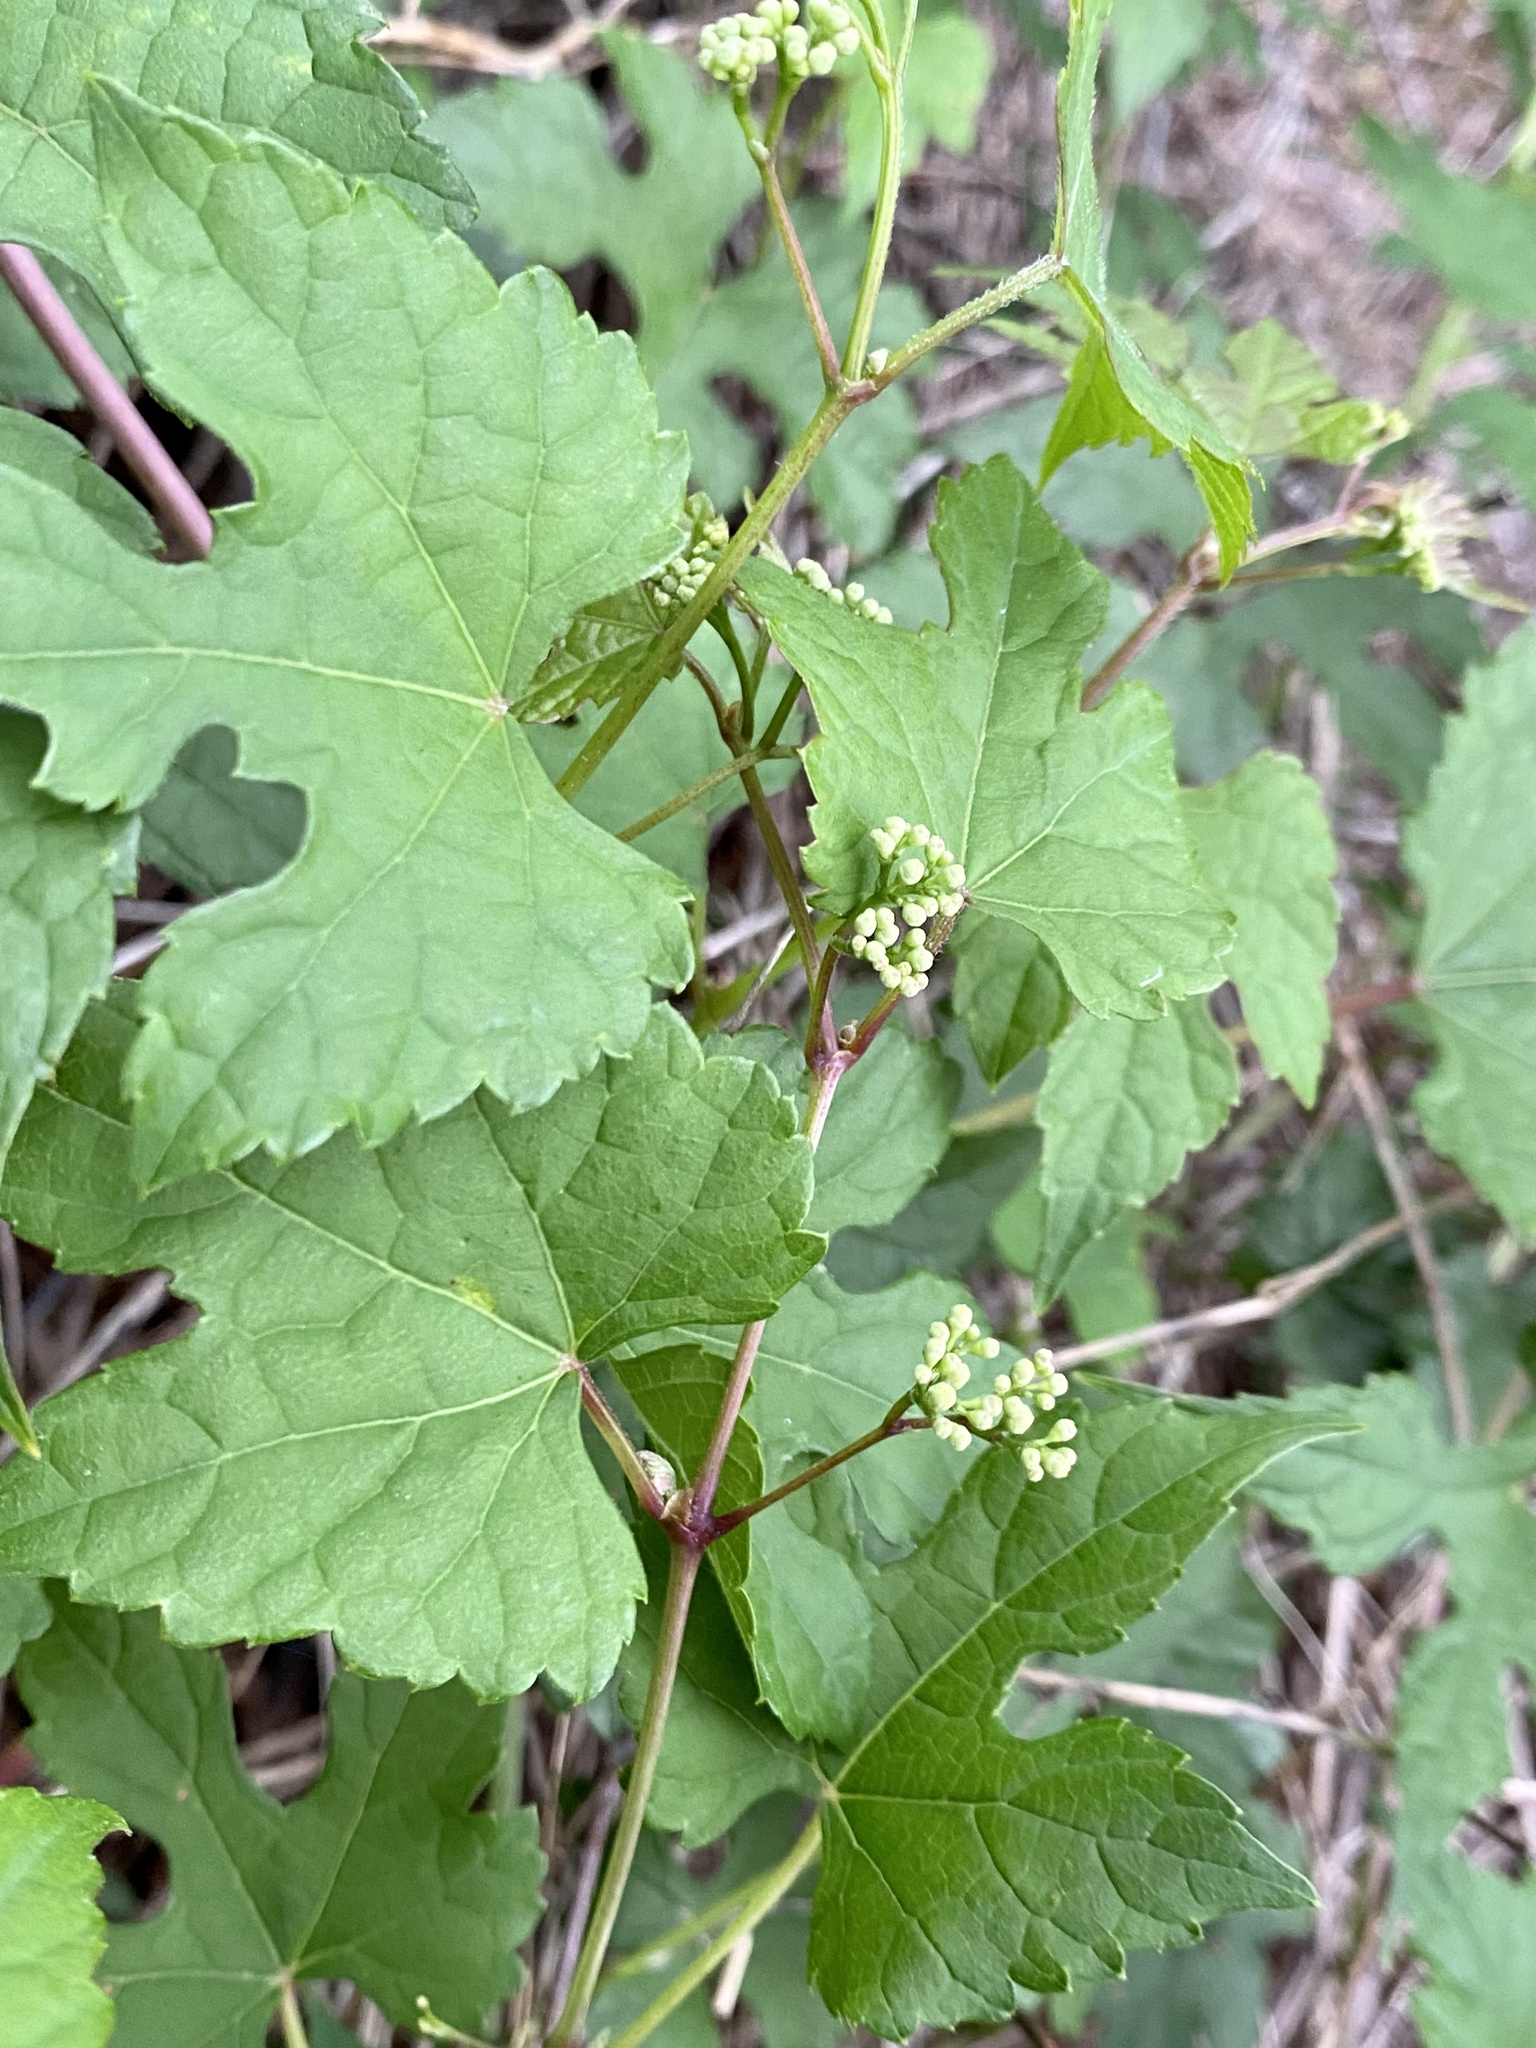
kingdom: Plantae
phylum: Tracheophyta
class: Magnoliopsida
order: Vitales
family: Vitaceae
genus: Ampelopsis
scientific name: Ampelopsis glandulosa
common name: Amur peppervine
